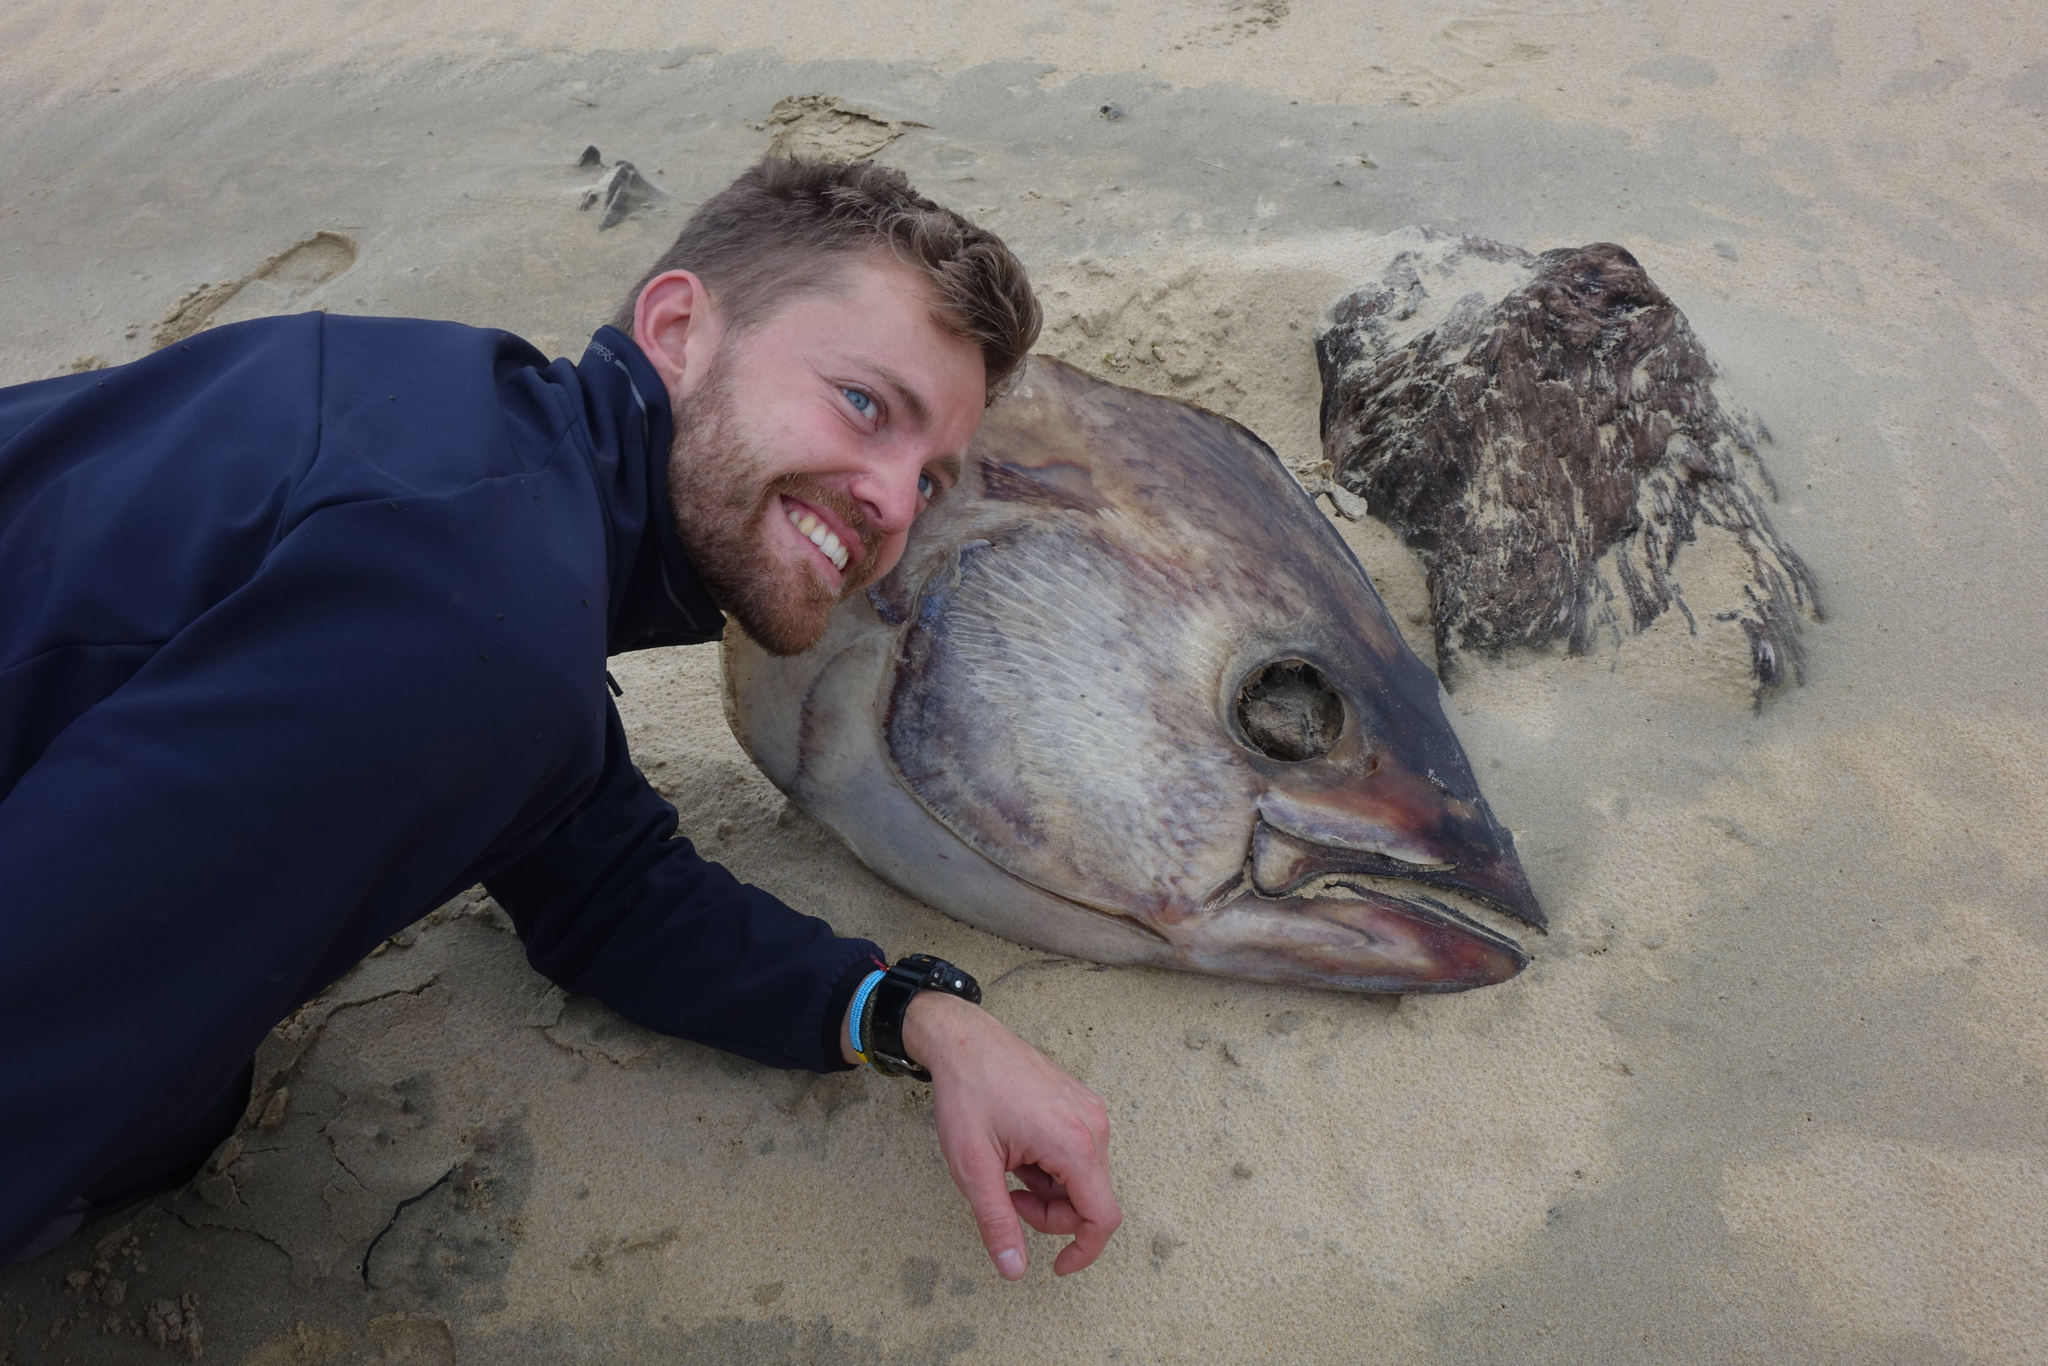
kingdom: Animalia
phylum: Chordata
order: Perciformes
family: Scombridae
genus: Thunnus
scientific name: Thunnus
